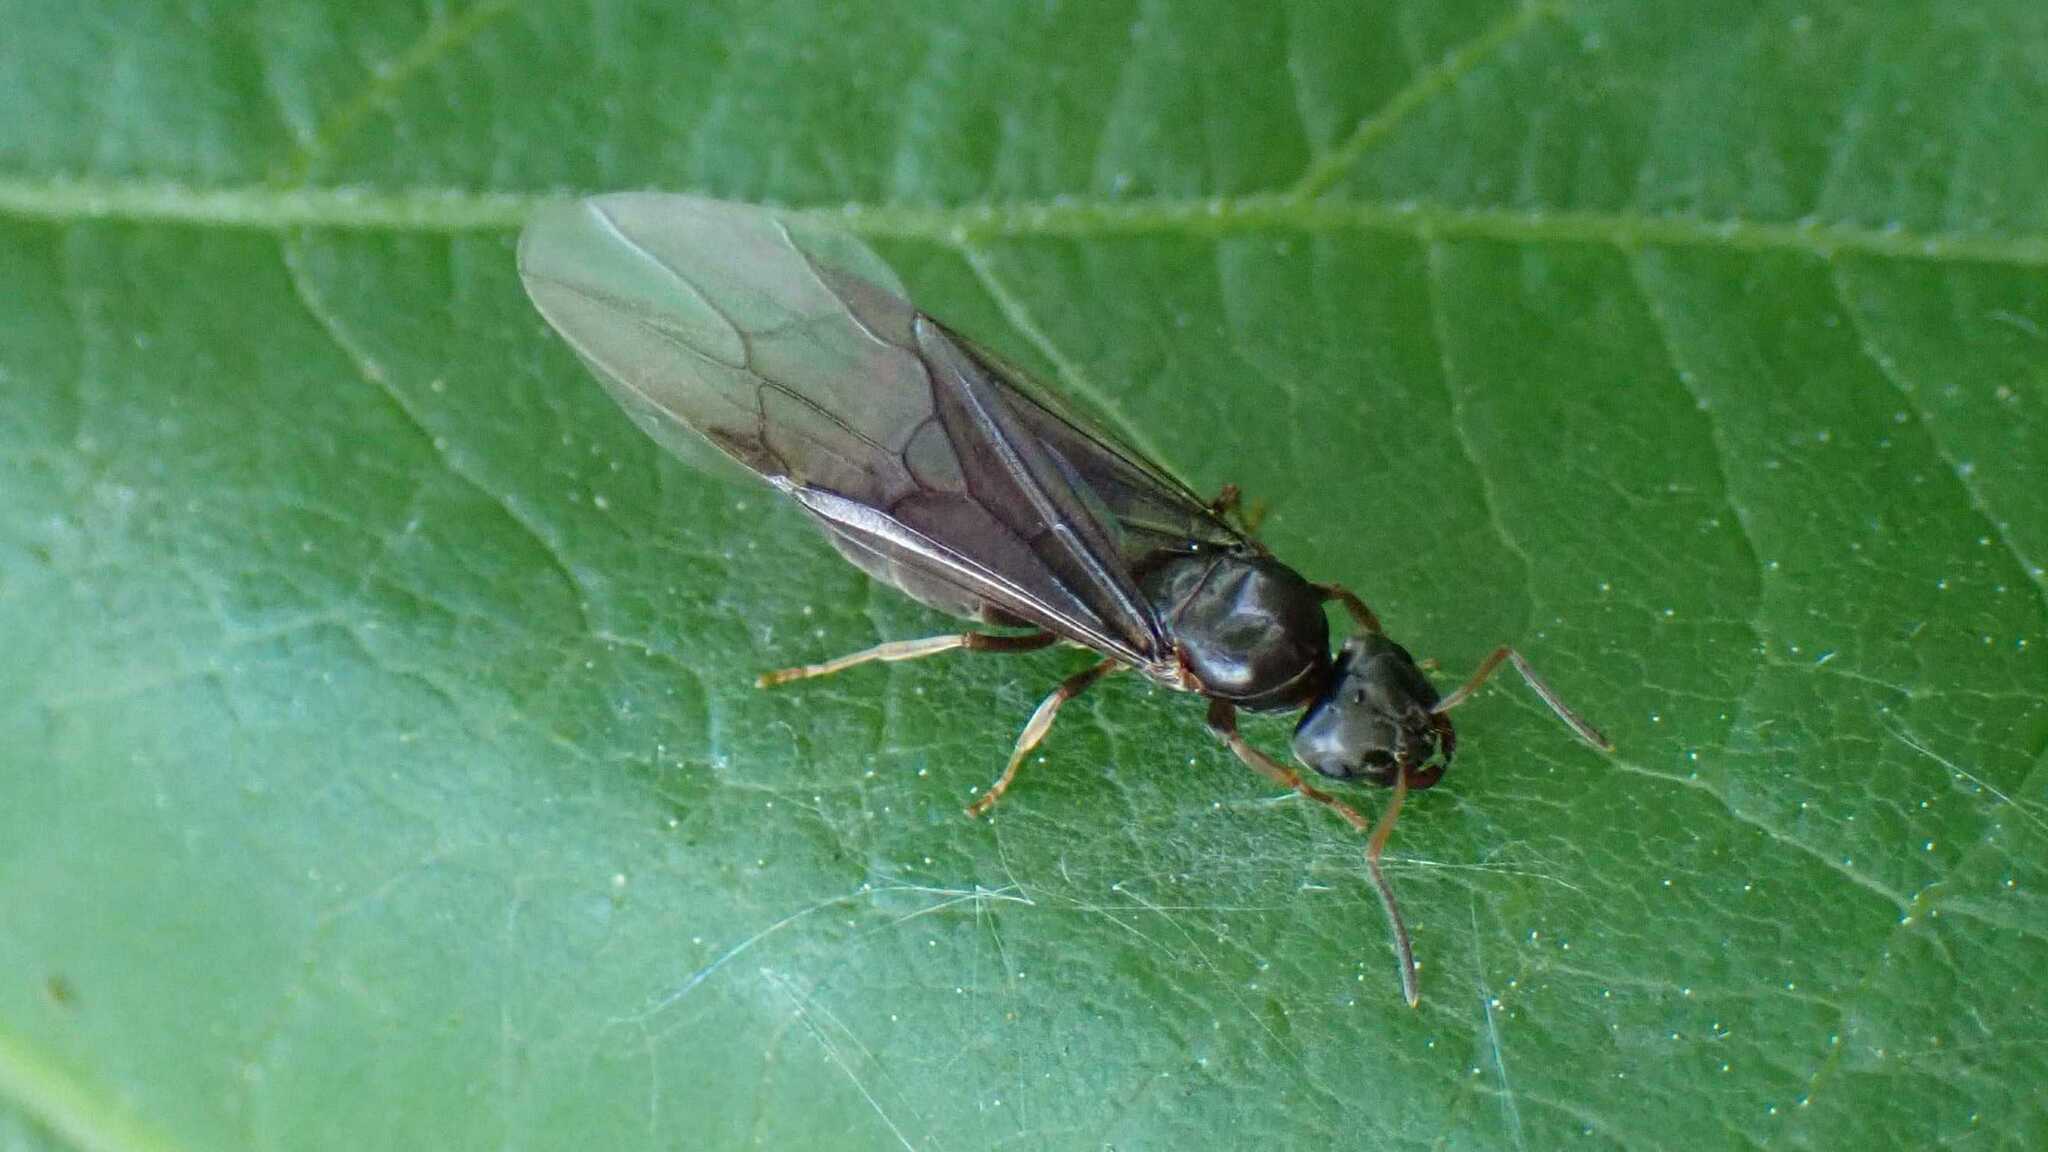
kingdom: Animalia
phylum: Arthropoda
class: Insecta
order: Hymenoptera
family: Formicidae
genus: Lasius
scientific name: Lasius brunneus
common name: Brown ant
